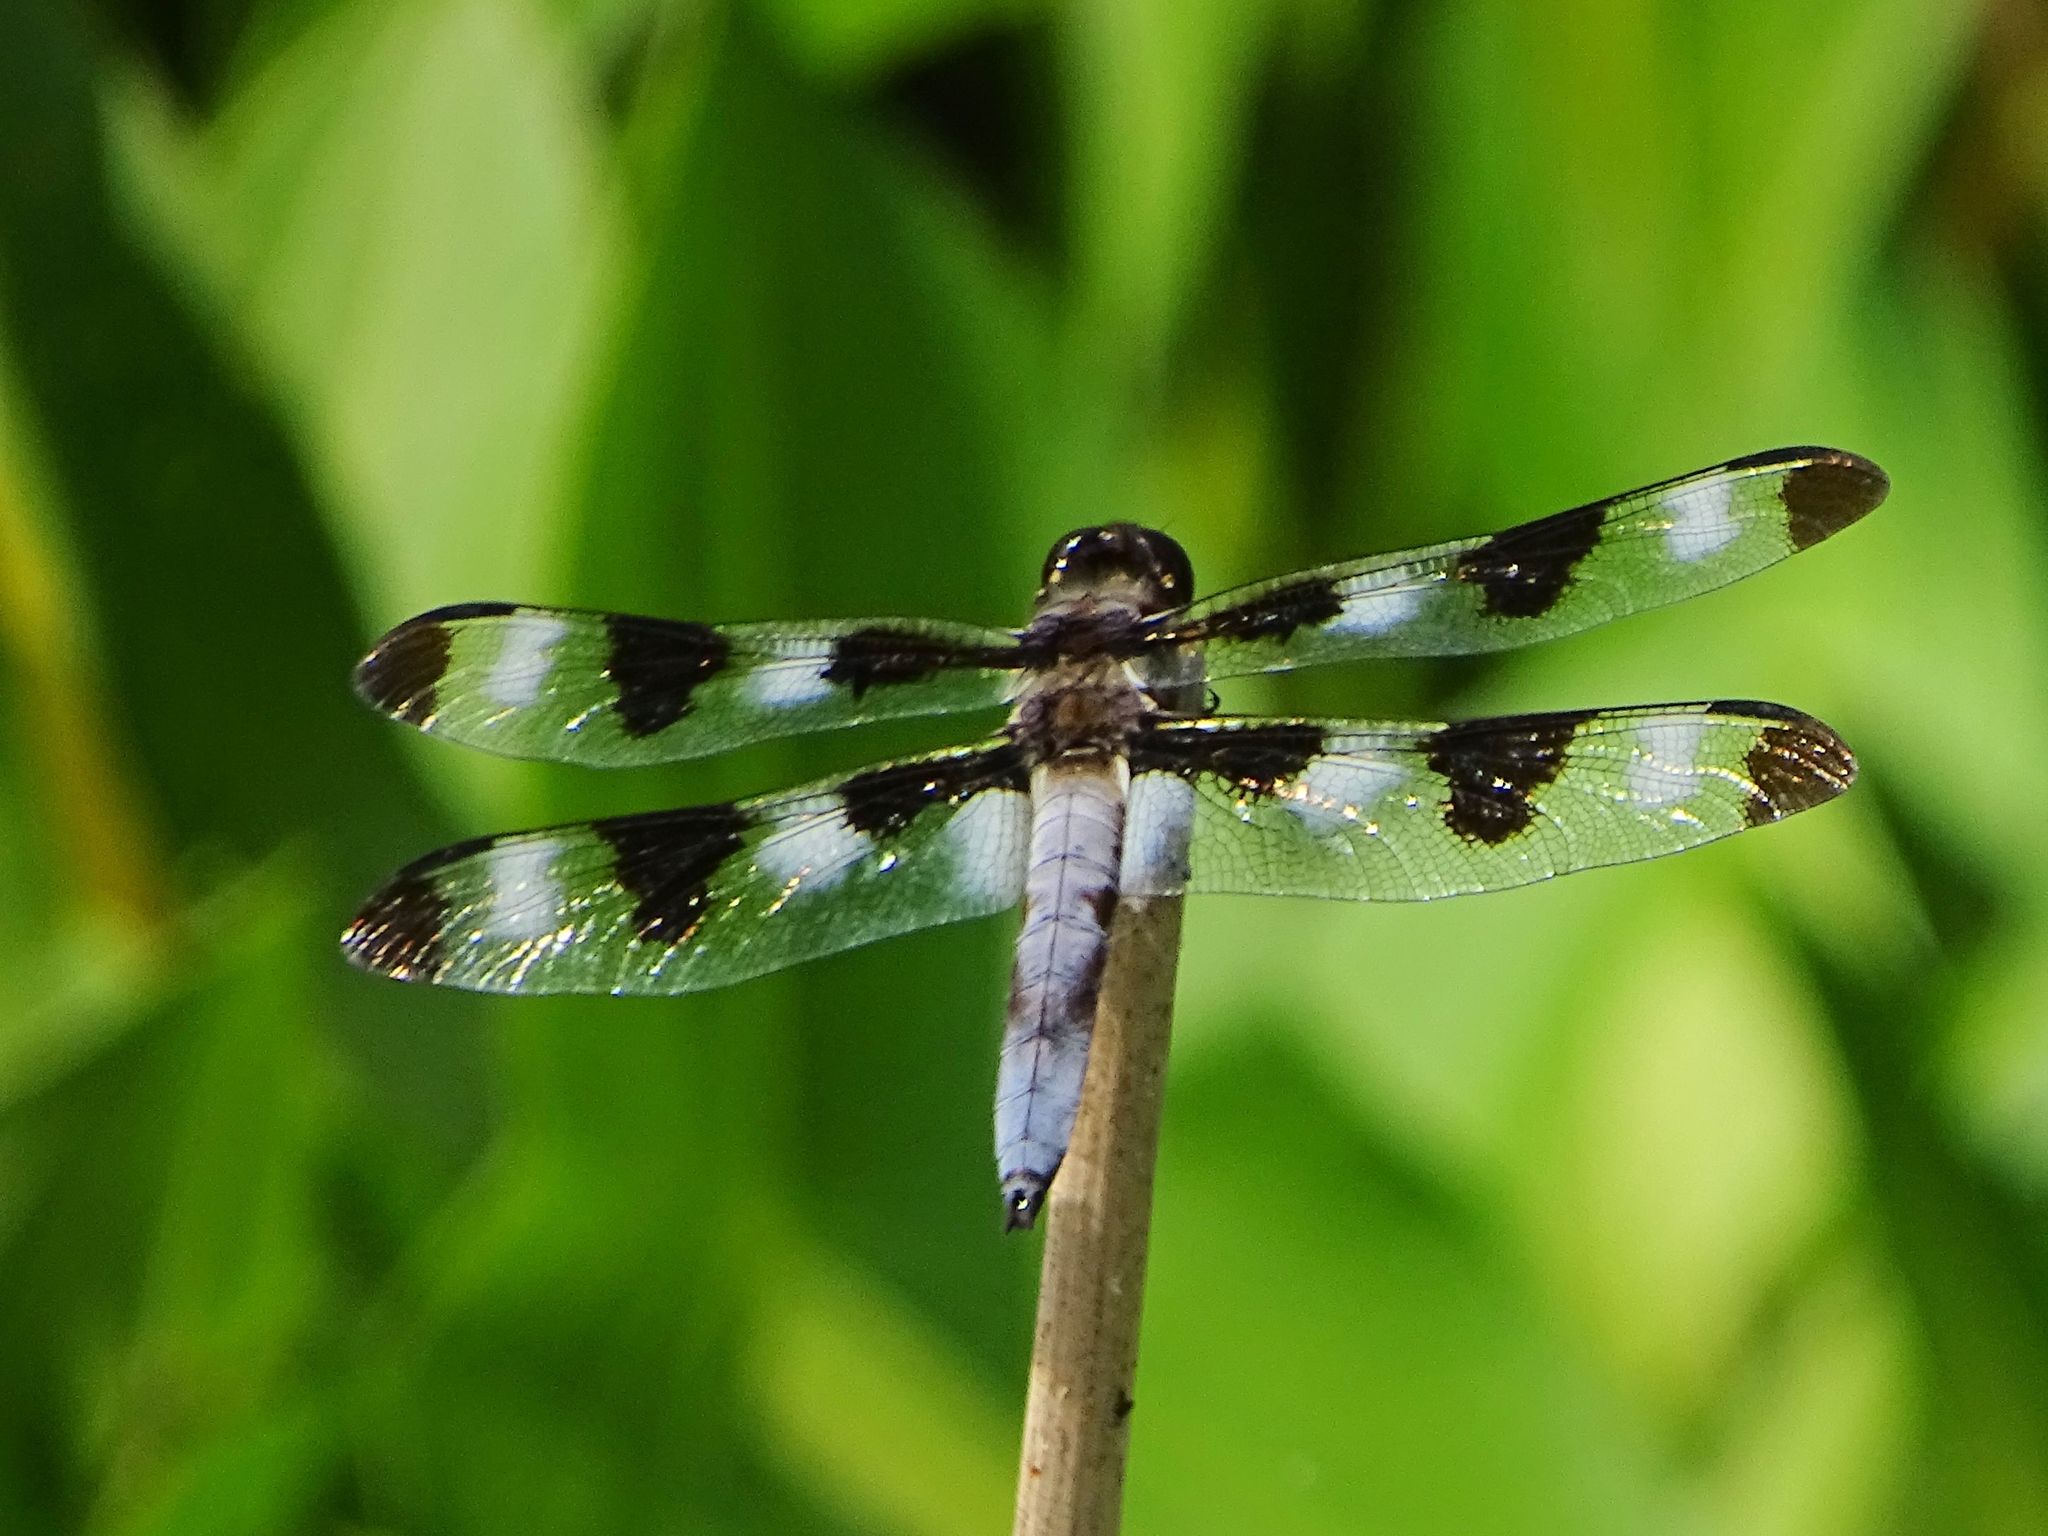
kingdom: Animalia
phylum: Arthropoda
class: Insecta
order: Odonata
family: Libellulidae
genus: Libellula
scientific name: Libellula pulchella
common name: Twelve-spotted skimmer
